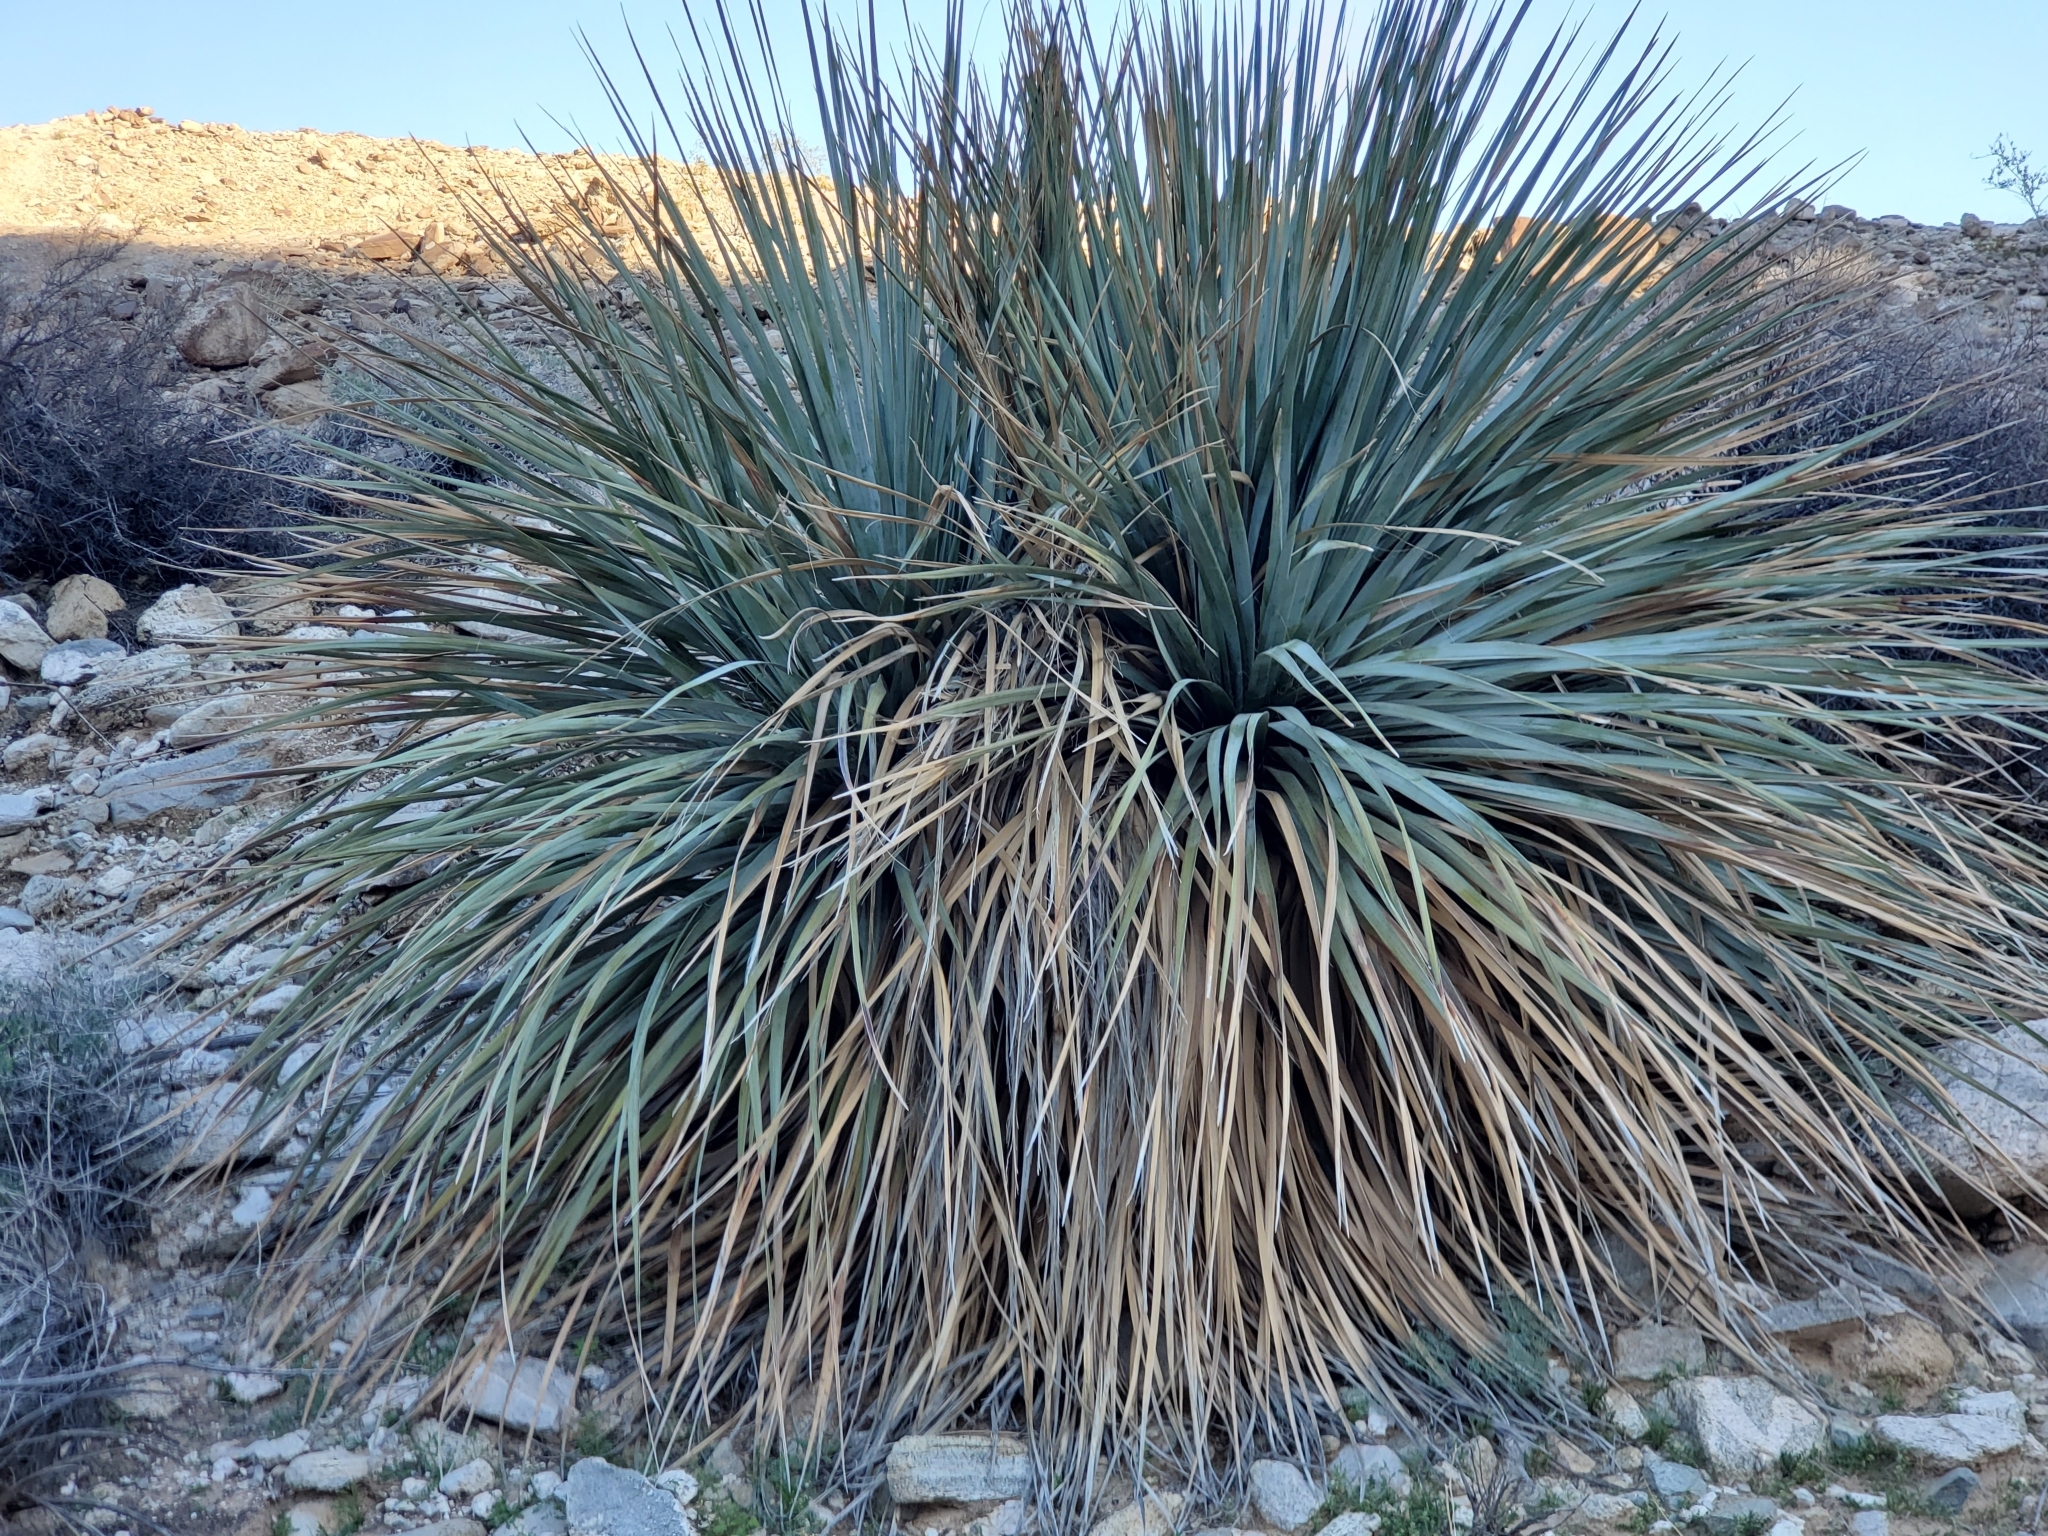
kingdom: Plantae
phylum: Tracheophyta
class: Liliopsida
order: Asparagales
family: Asparagaceae
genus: Nolina
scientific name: Nolina bigelovii
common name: Bigelow bear-grass
